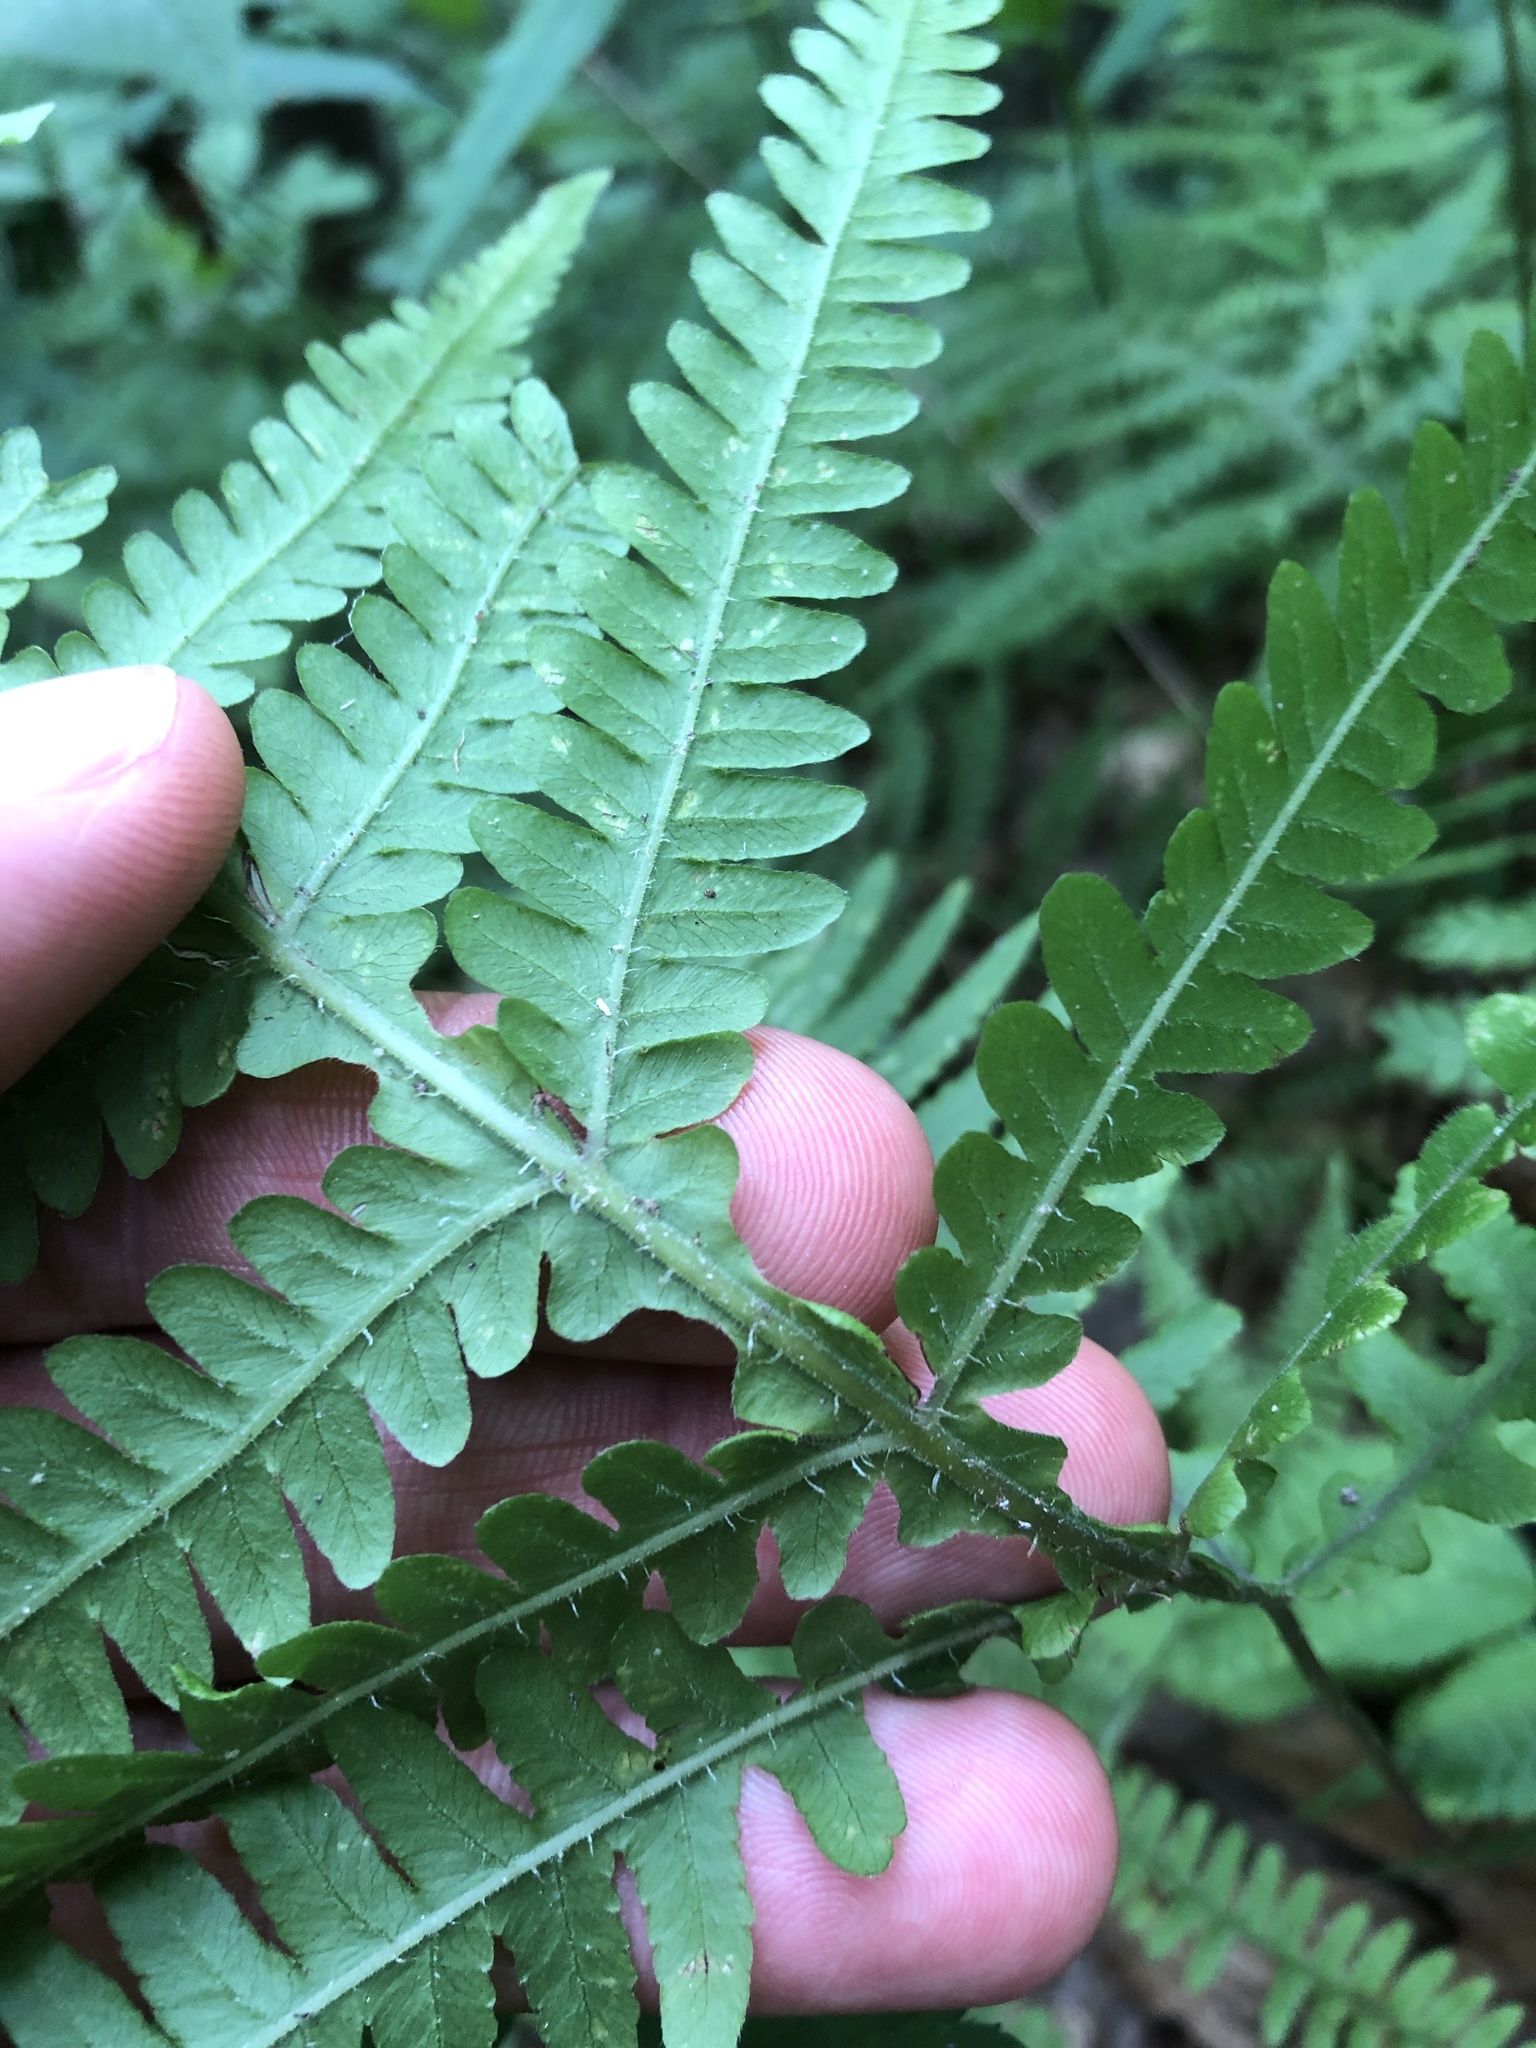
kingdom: Plantae
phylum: Tracheophyta
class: Polypodiopsida
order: Polypodiales
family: Thelypteridaceae
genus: Phegopteris
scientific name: Phegopteris hexagonoptera
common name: Broad beech fern
